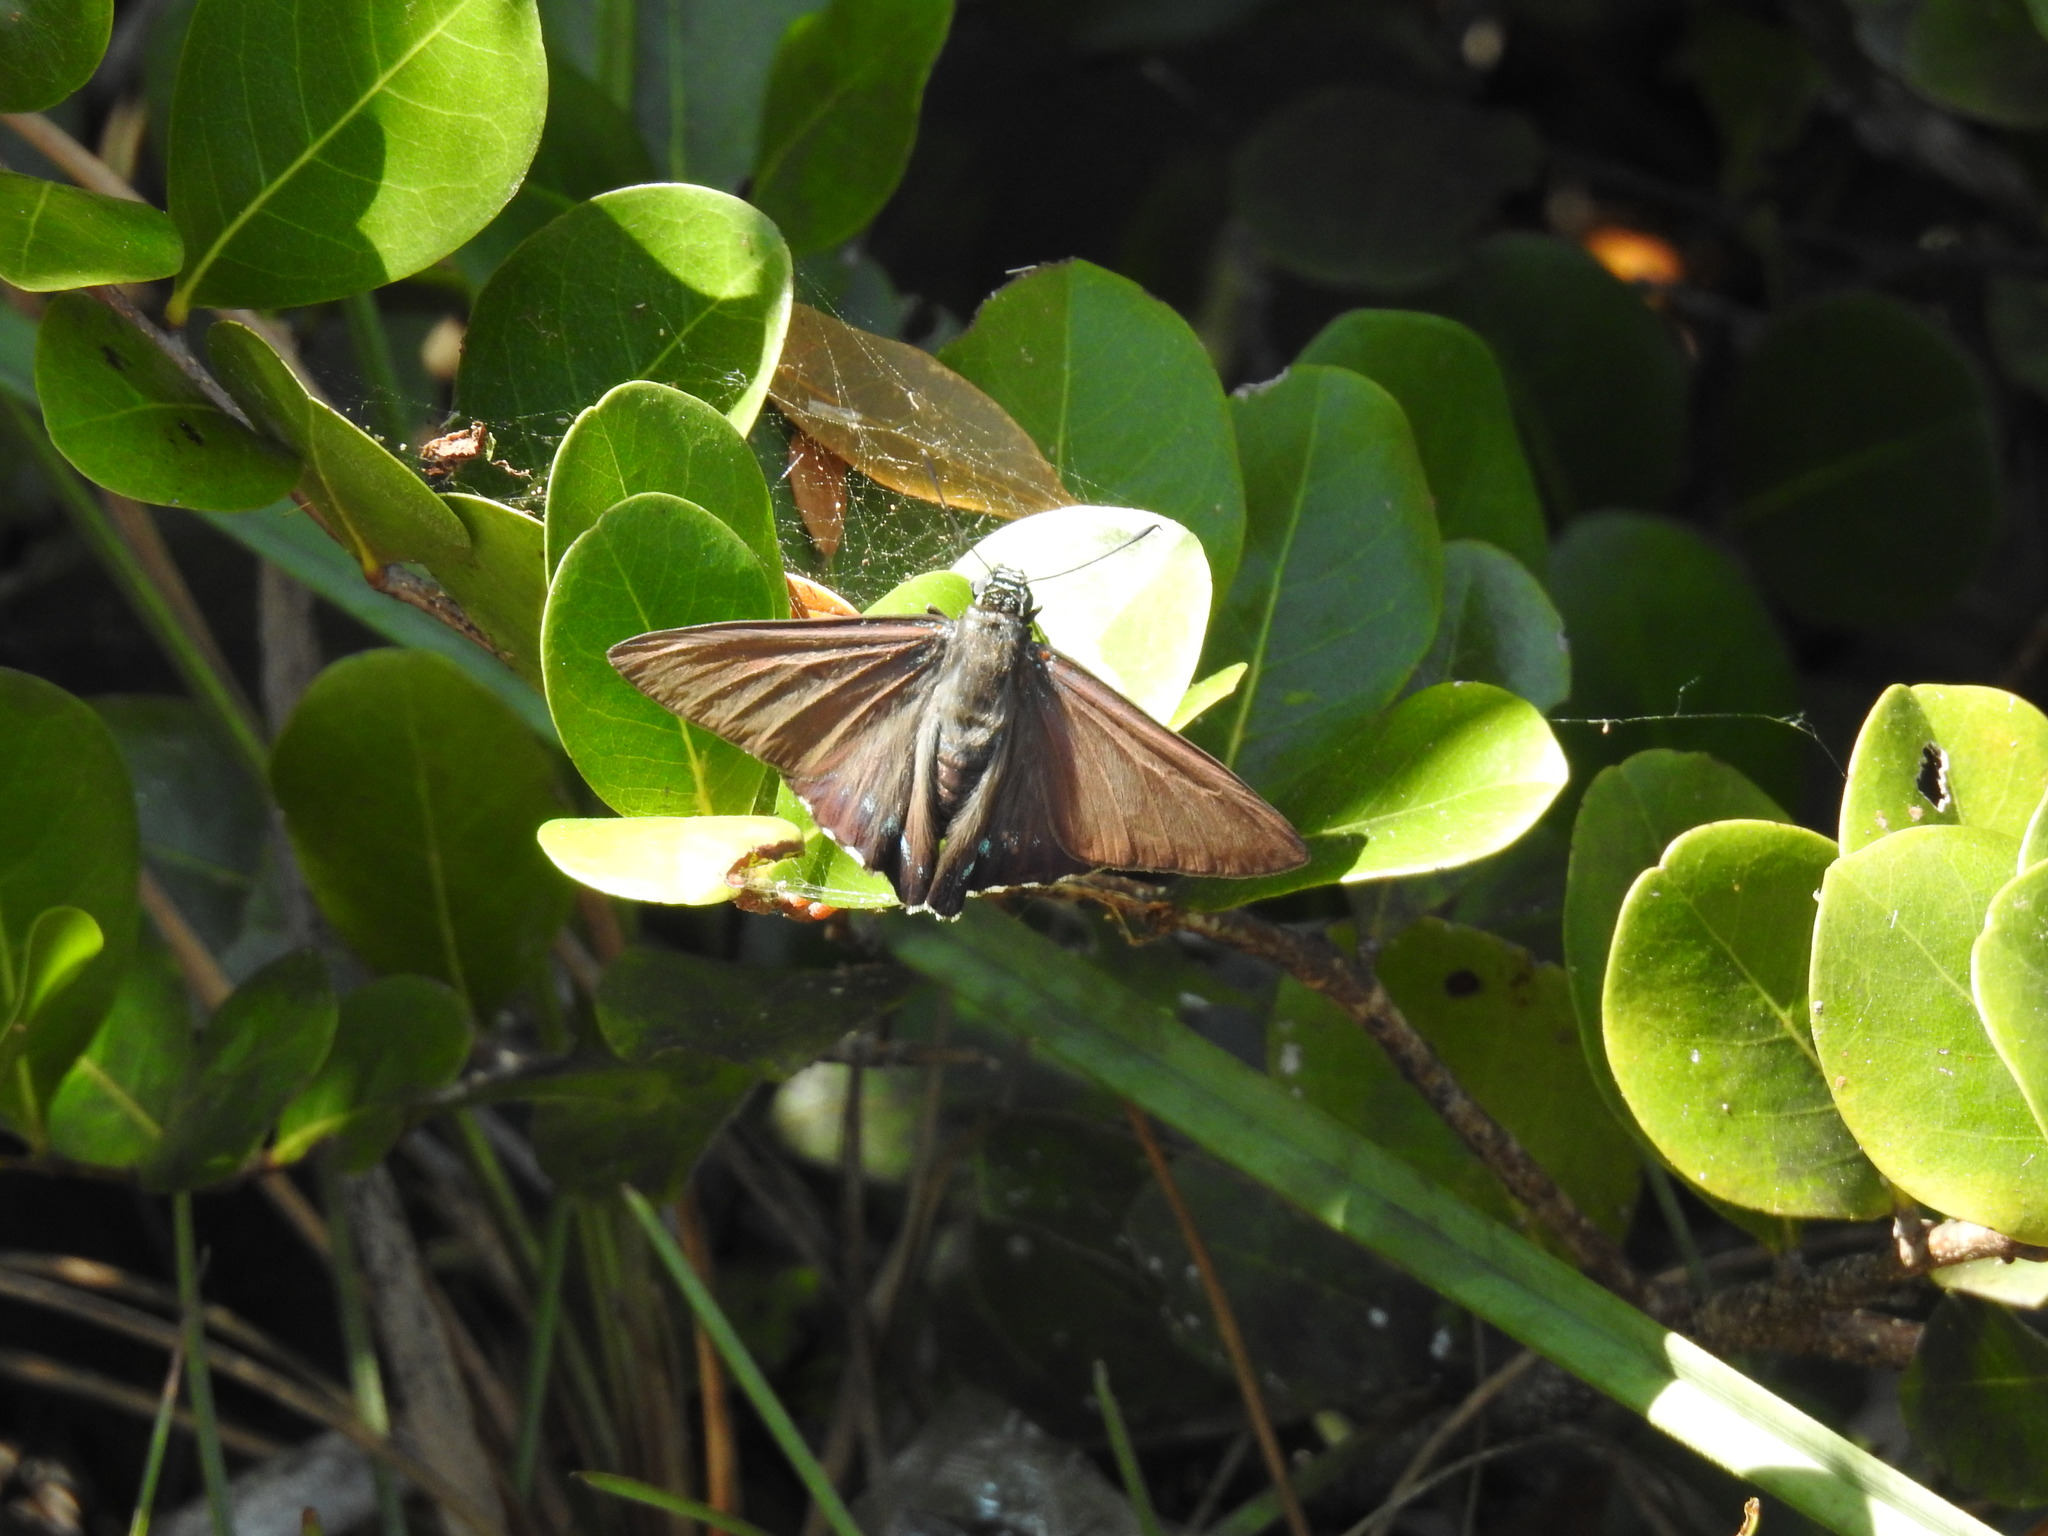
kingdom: Animalia
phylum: Arthropoda
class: Insecta
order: Lepidoptera
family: Hesperiidae
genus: Phocides
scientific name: Phocides pigmalion
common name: Mangrove skipper
